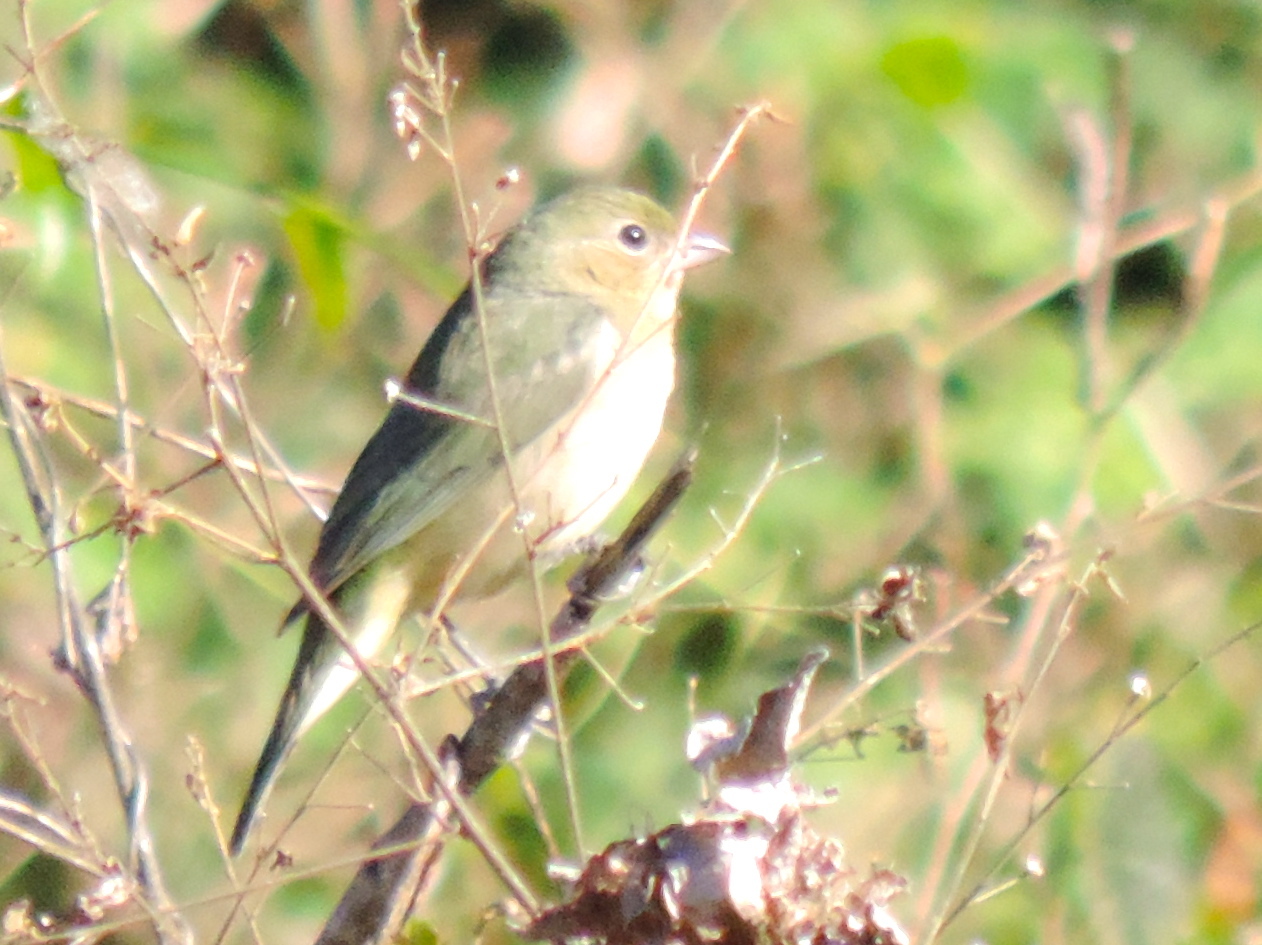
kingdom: Animalia
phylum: Chordata
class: Aves
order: Passeriformes
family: Cardinalidae
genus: Passerina
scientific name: Passerina ciris
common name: Painted bunting
